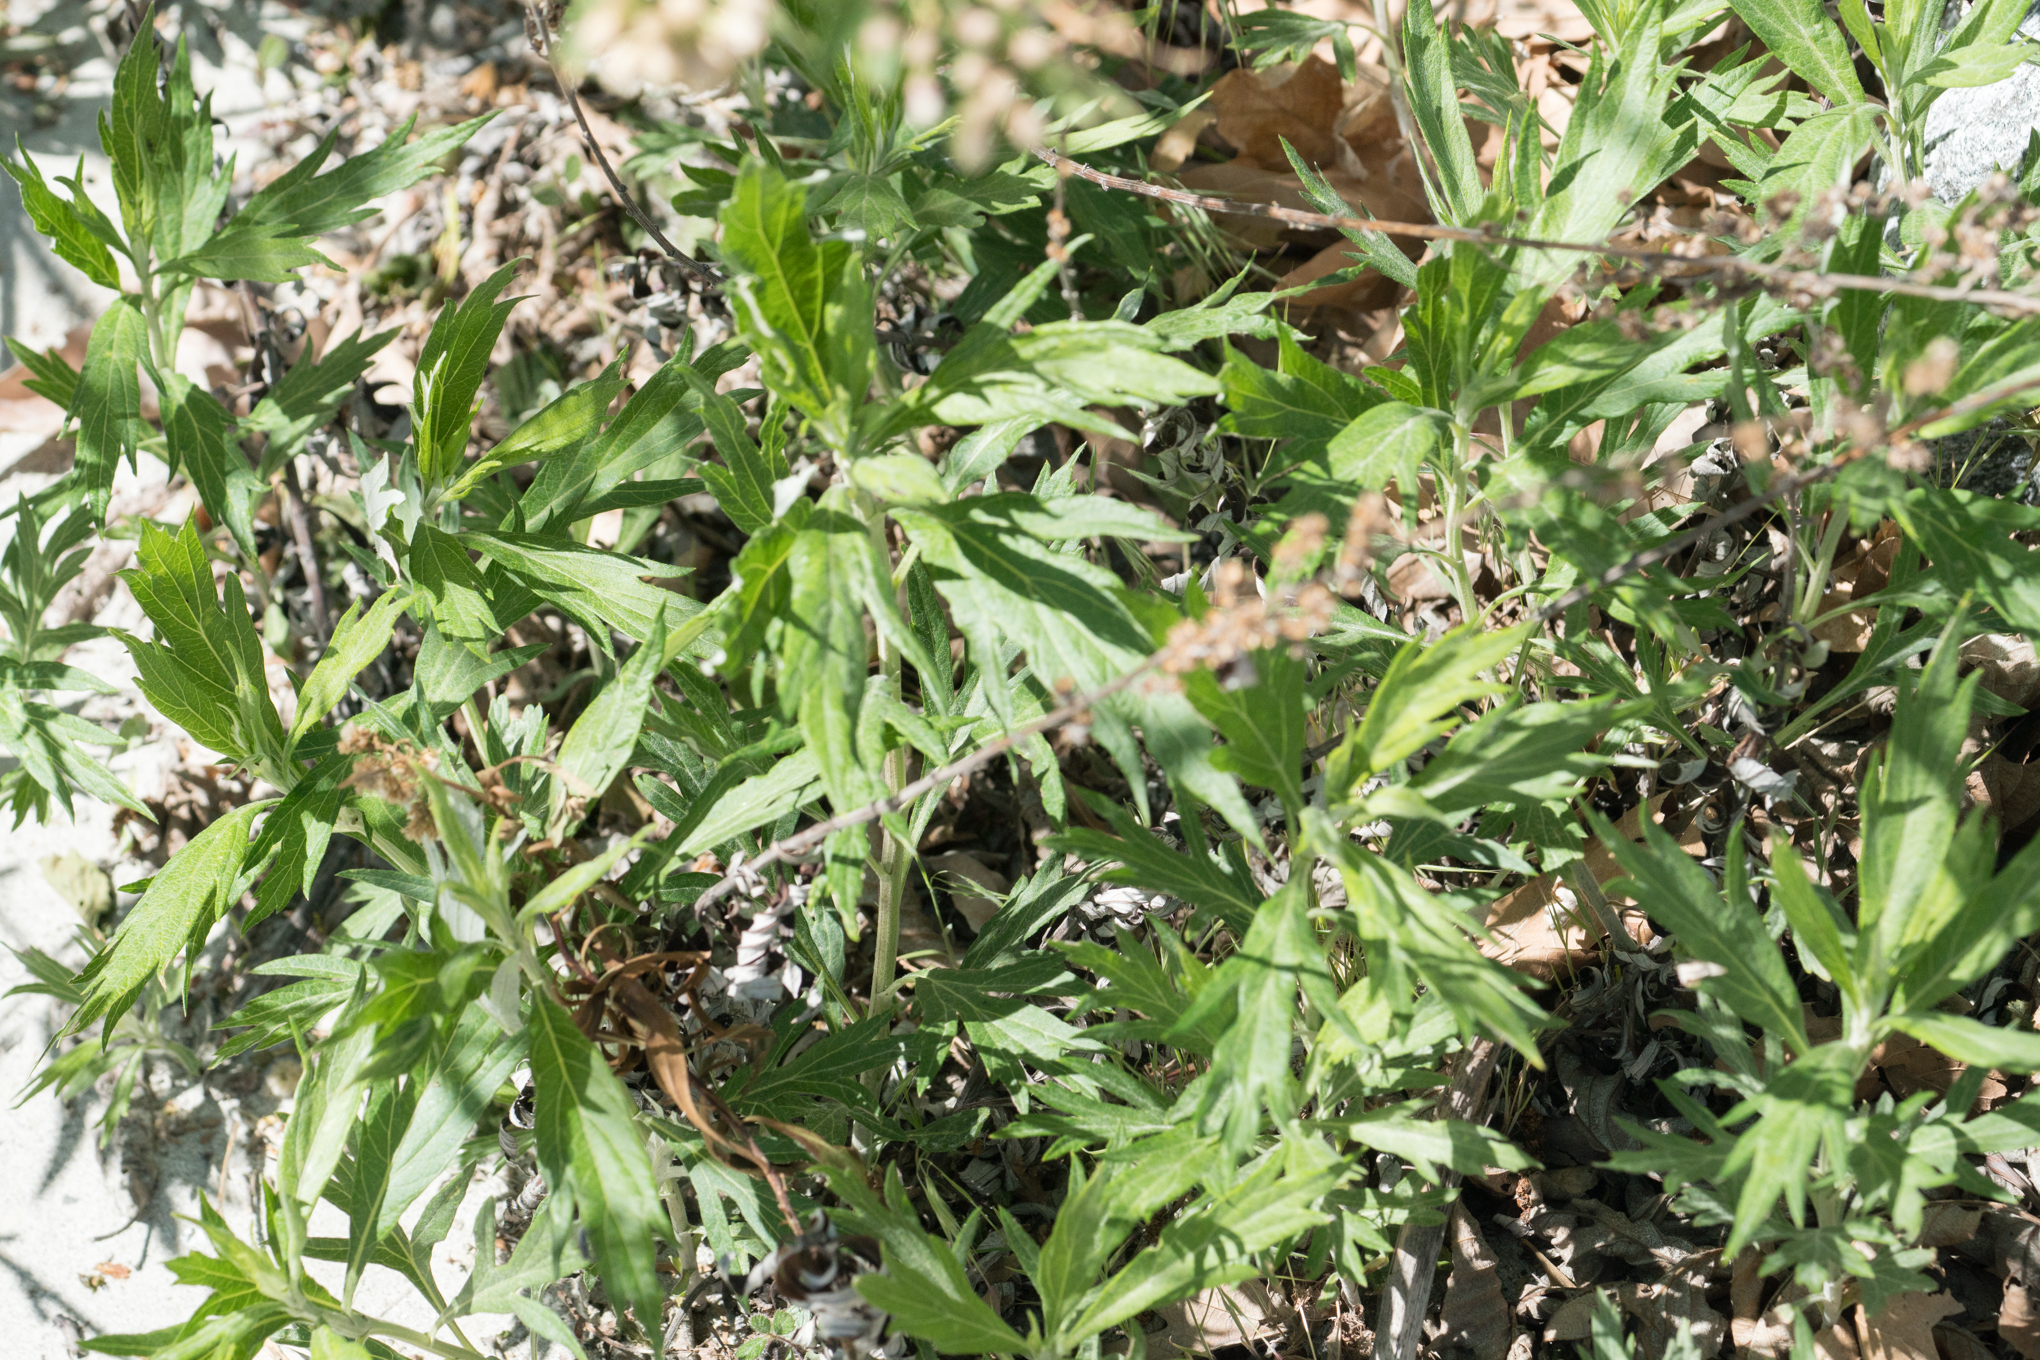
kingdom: Plantae
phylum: Tracheophyta
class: Magnoliopsida
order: Asterales
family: Asteraceae
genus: Artemisia
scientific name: Artemisia douglasiana
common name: Northwest mugwort
